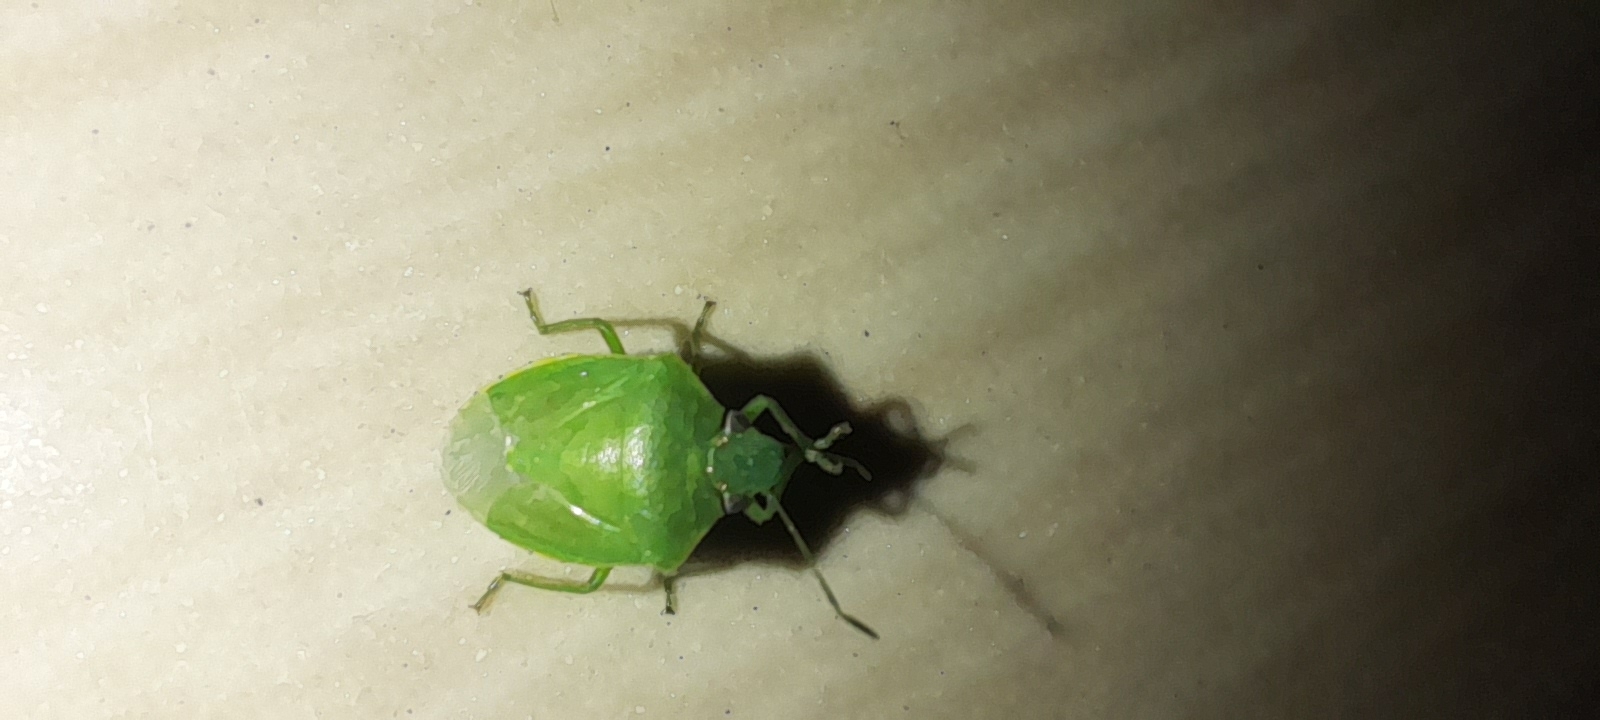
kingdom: Animalia
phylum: Arthropoda
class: Insecta
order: Hemiptera
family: Pentatomidae
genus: Acrosternum
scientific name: Acrosternum gramineum
